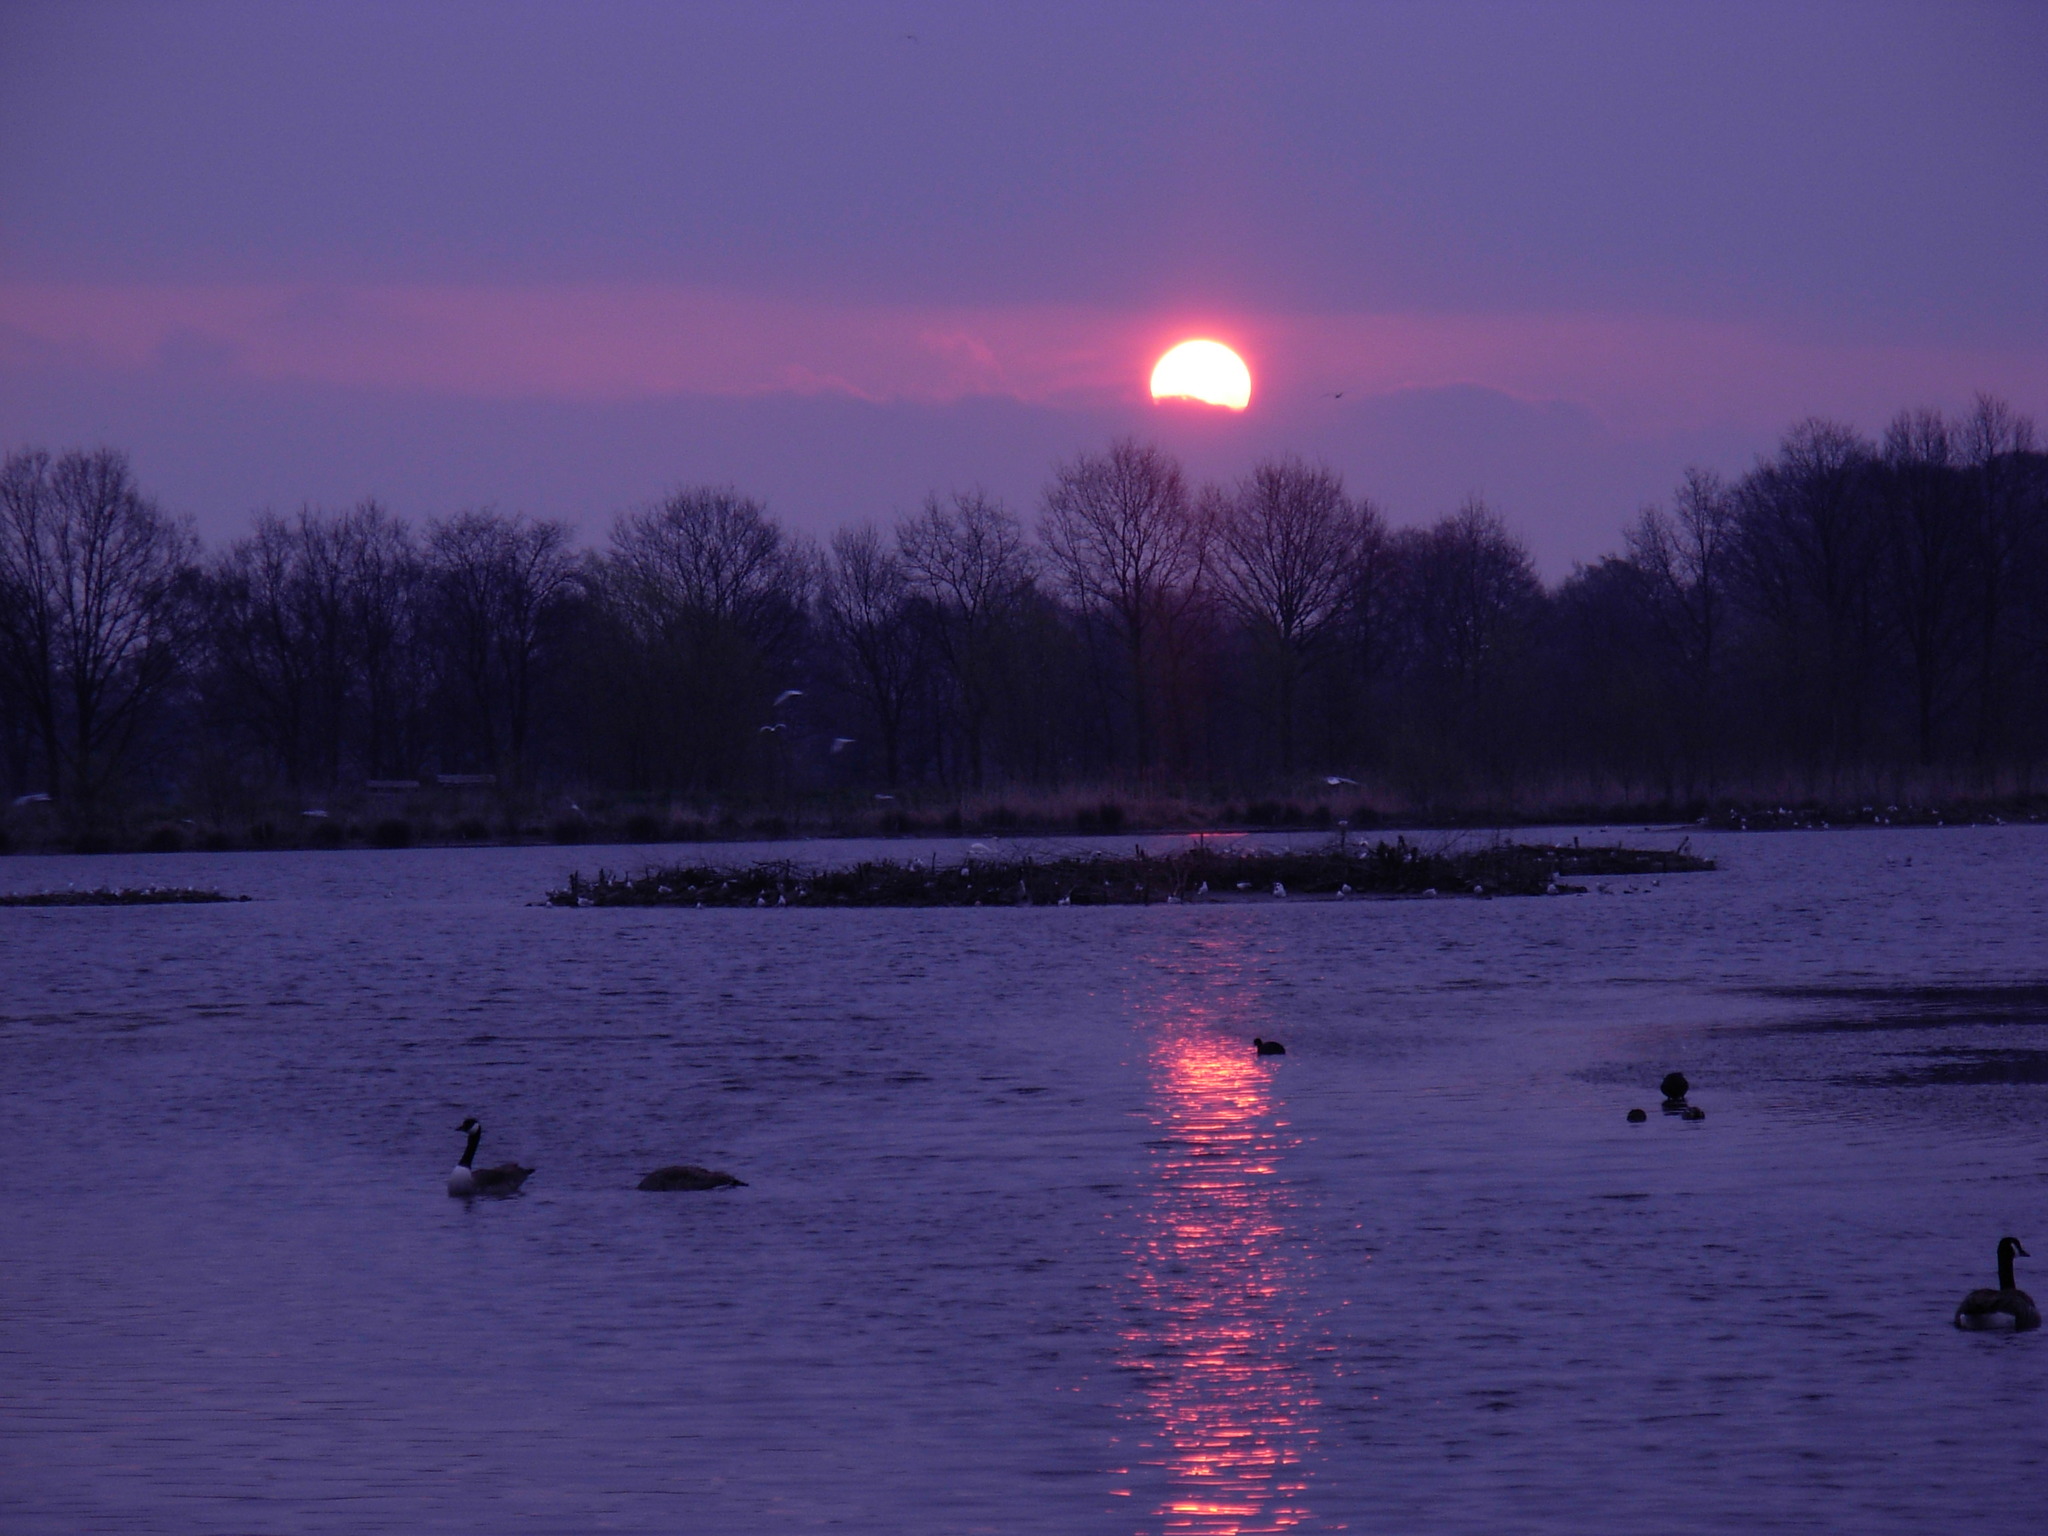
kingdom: Animalia
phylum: Chordata
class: Aves
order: Anseriformes
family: Anatidae
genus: Branta
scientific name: Branta canadensis
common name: Canada goose
